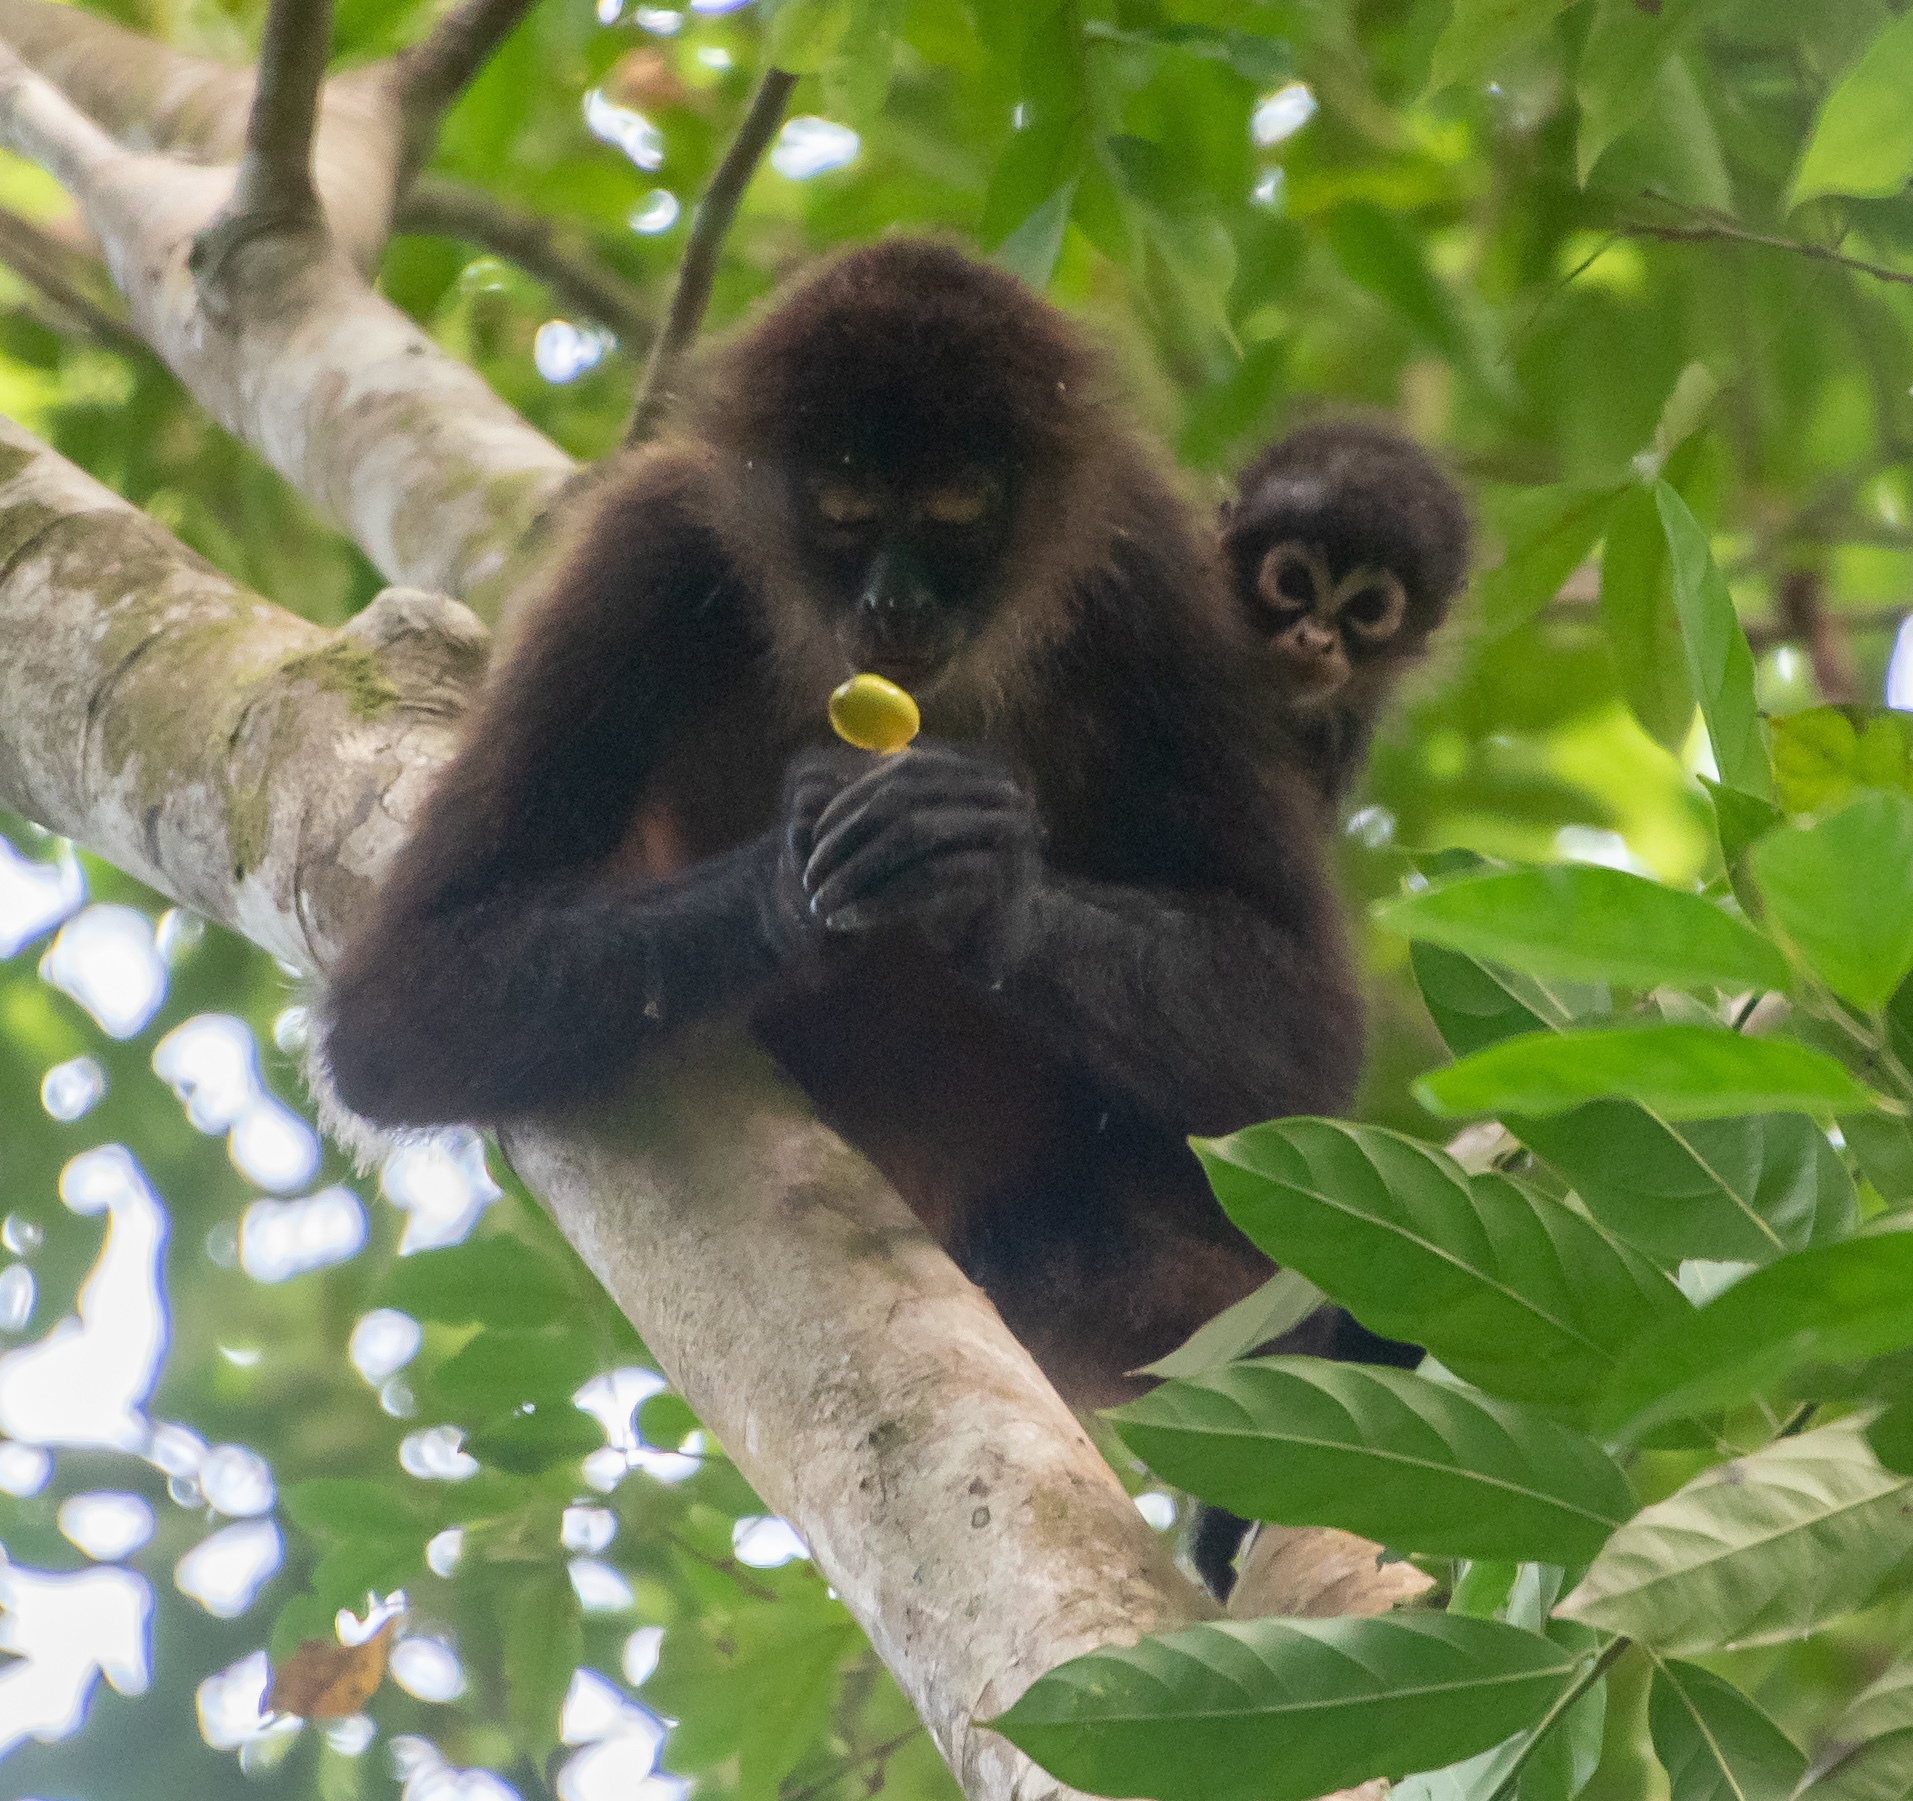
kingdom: Animalia
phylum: Chordata
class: Mammalia
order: Primates
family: Atelidae
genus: Ateles
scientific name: Ateles geoffroyi
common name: Black-handed spider monkey
